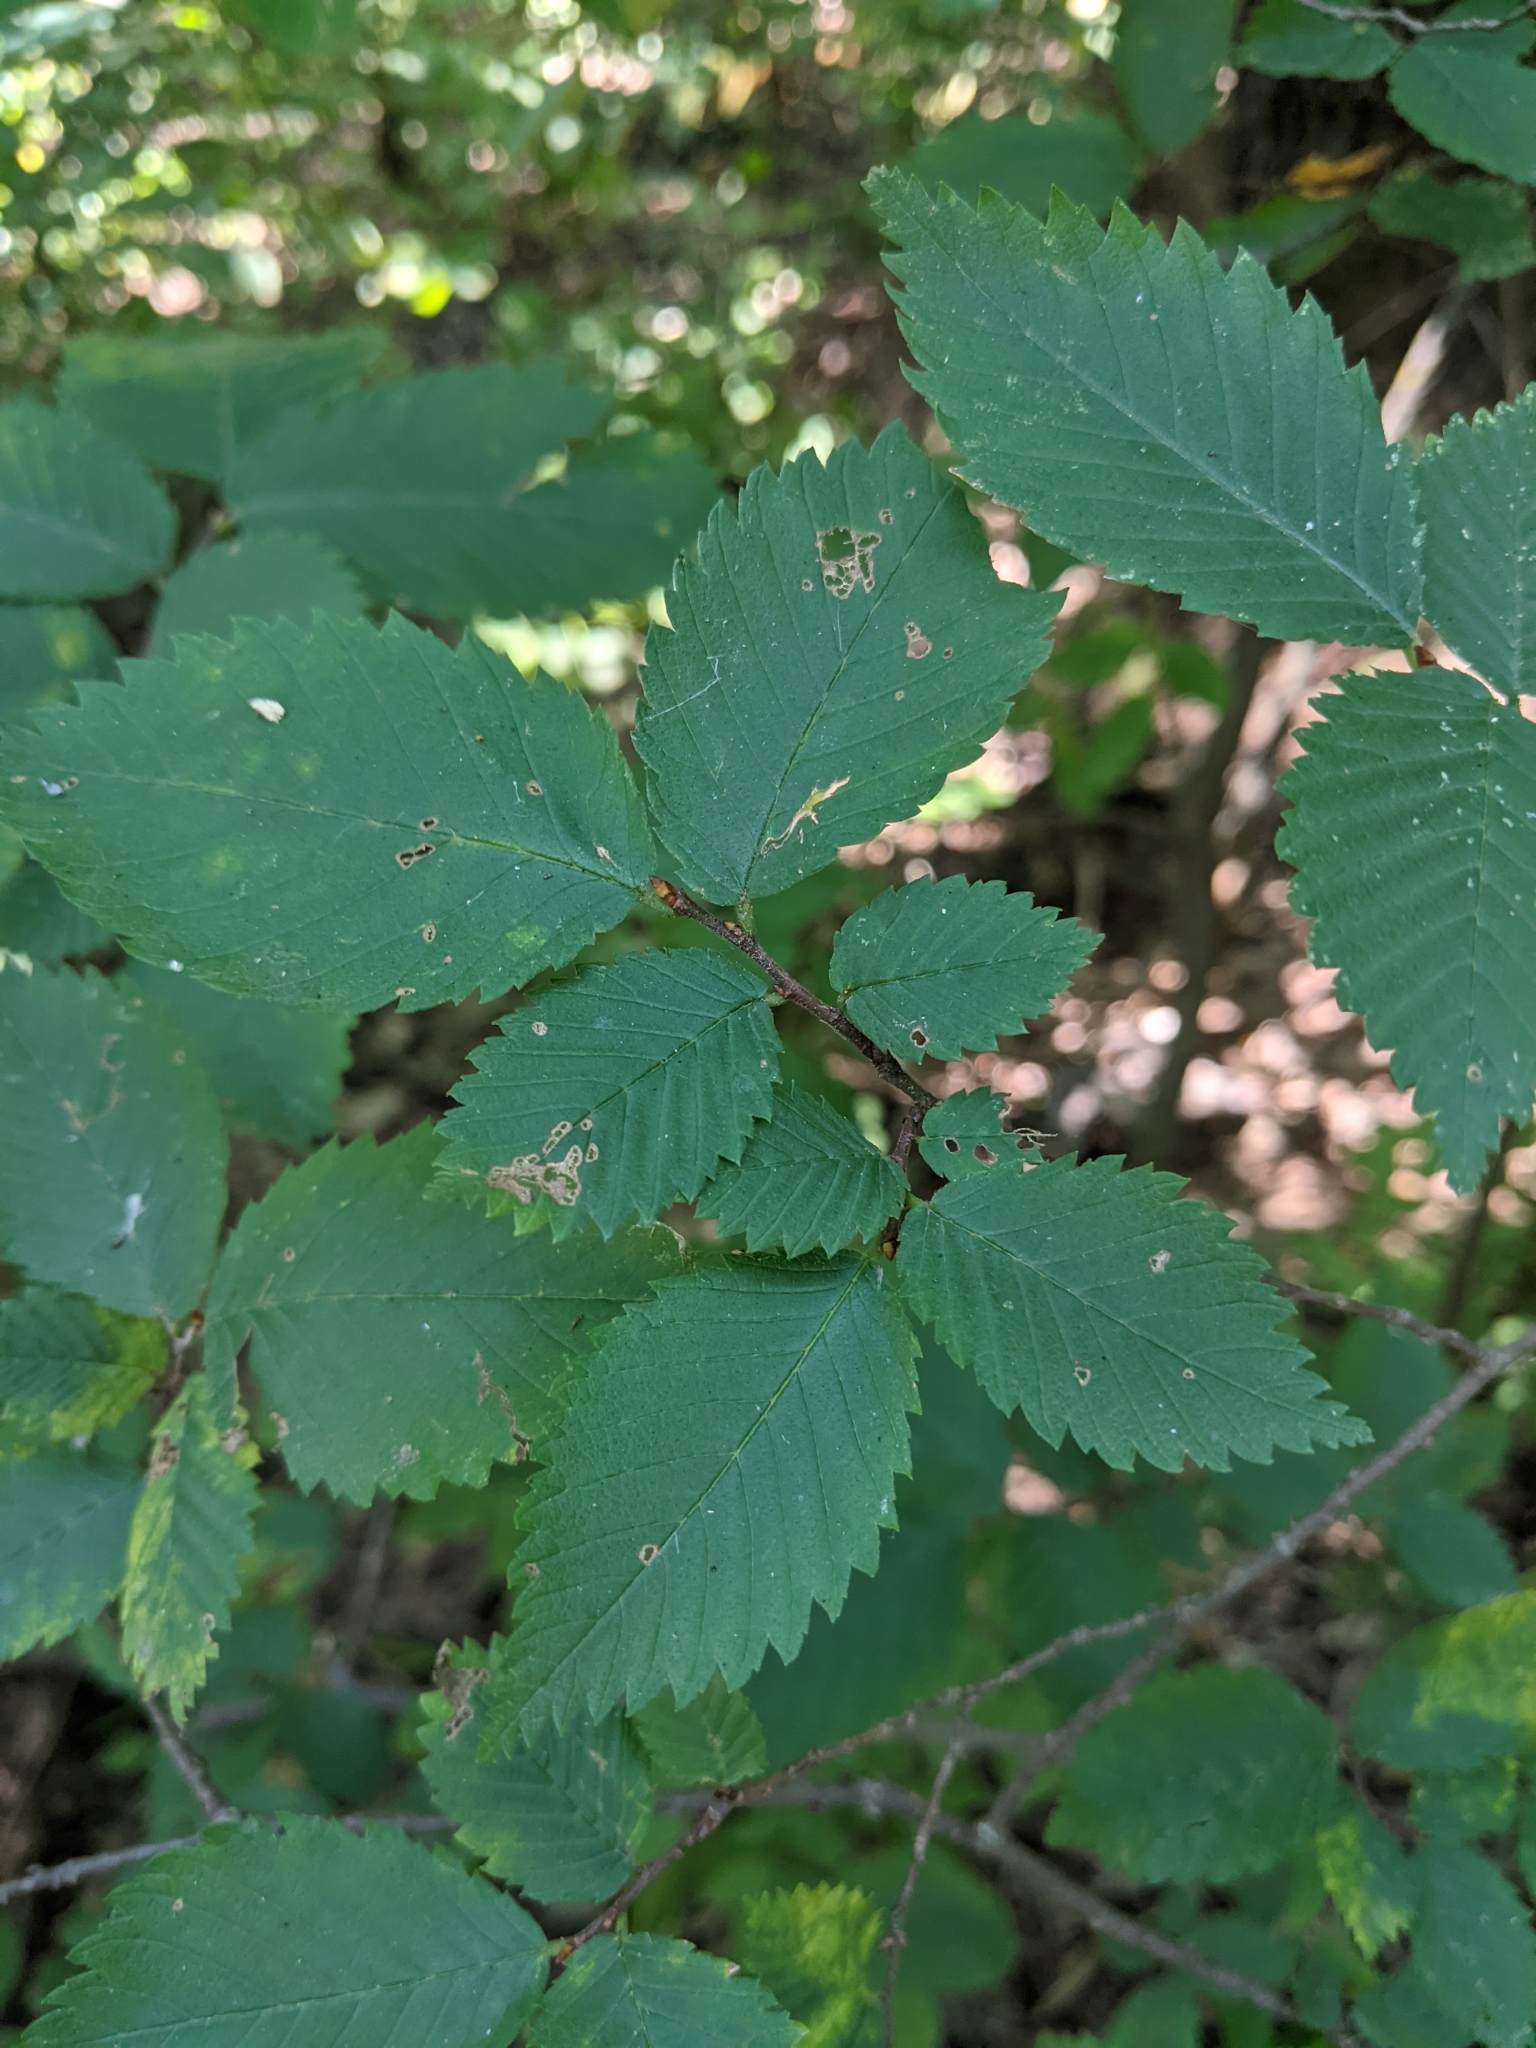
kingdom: Plantae
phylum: Tracheophyta
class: Magnoliopsida
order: Rosales
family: Ulmaceae
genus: Ulmus
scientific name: Ulmus minor
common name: Small-leaved elm
